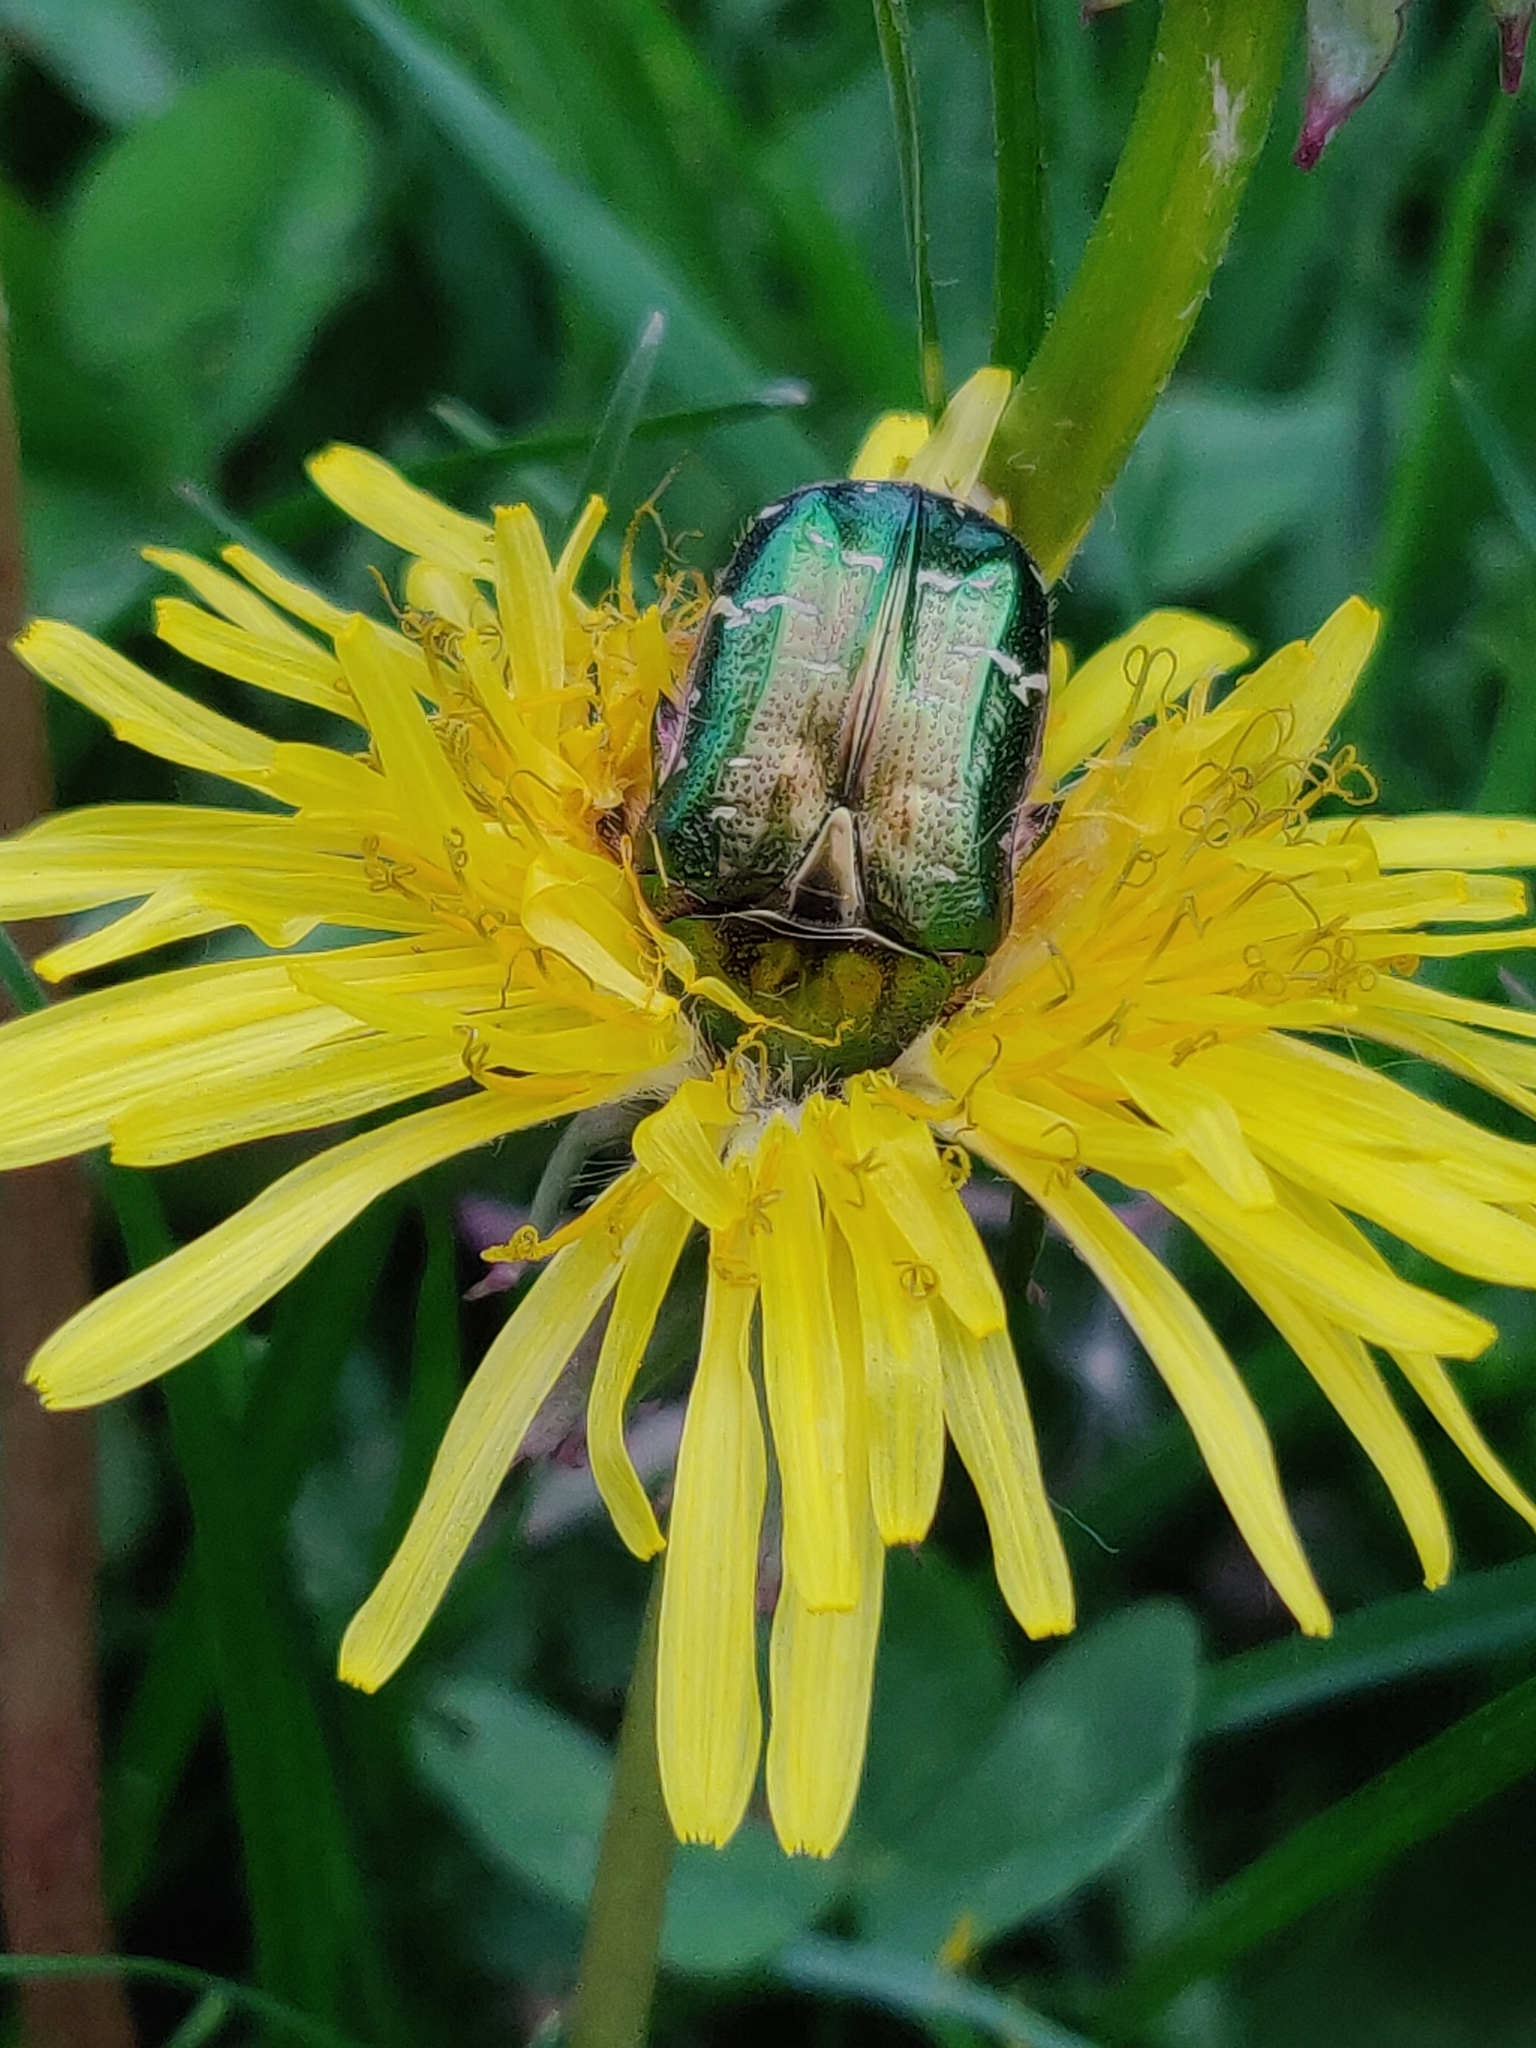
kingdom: Animalia
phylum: Arthropoda
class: Insecta
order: Coleoptera
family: Scarabaeidae
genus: Cetonia
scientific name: Cetonia aurata
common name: Rose chafer
